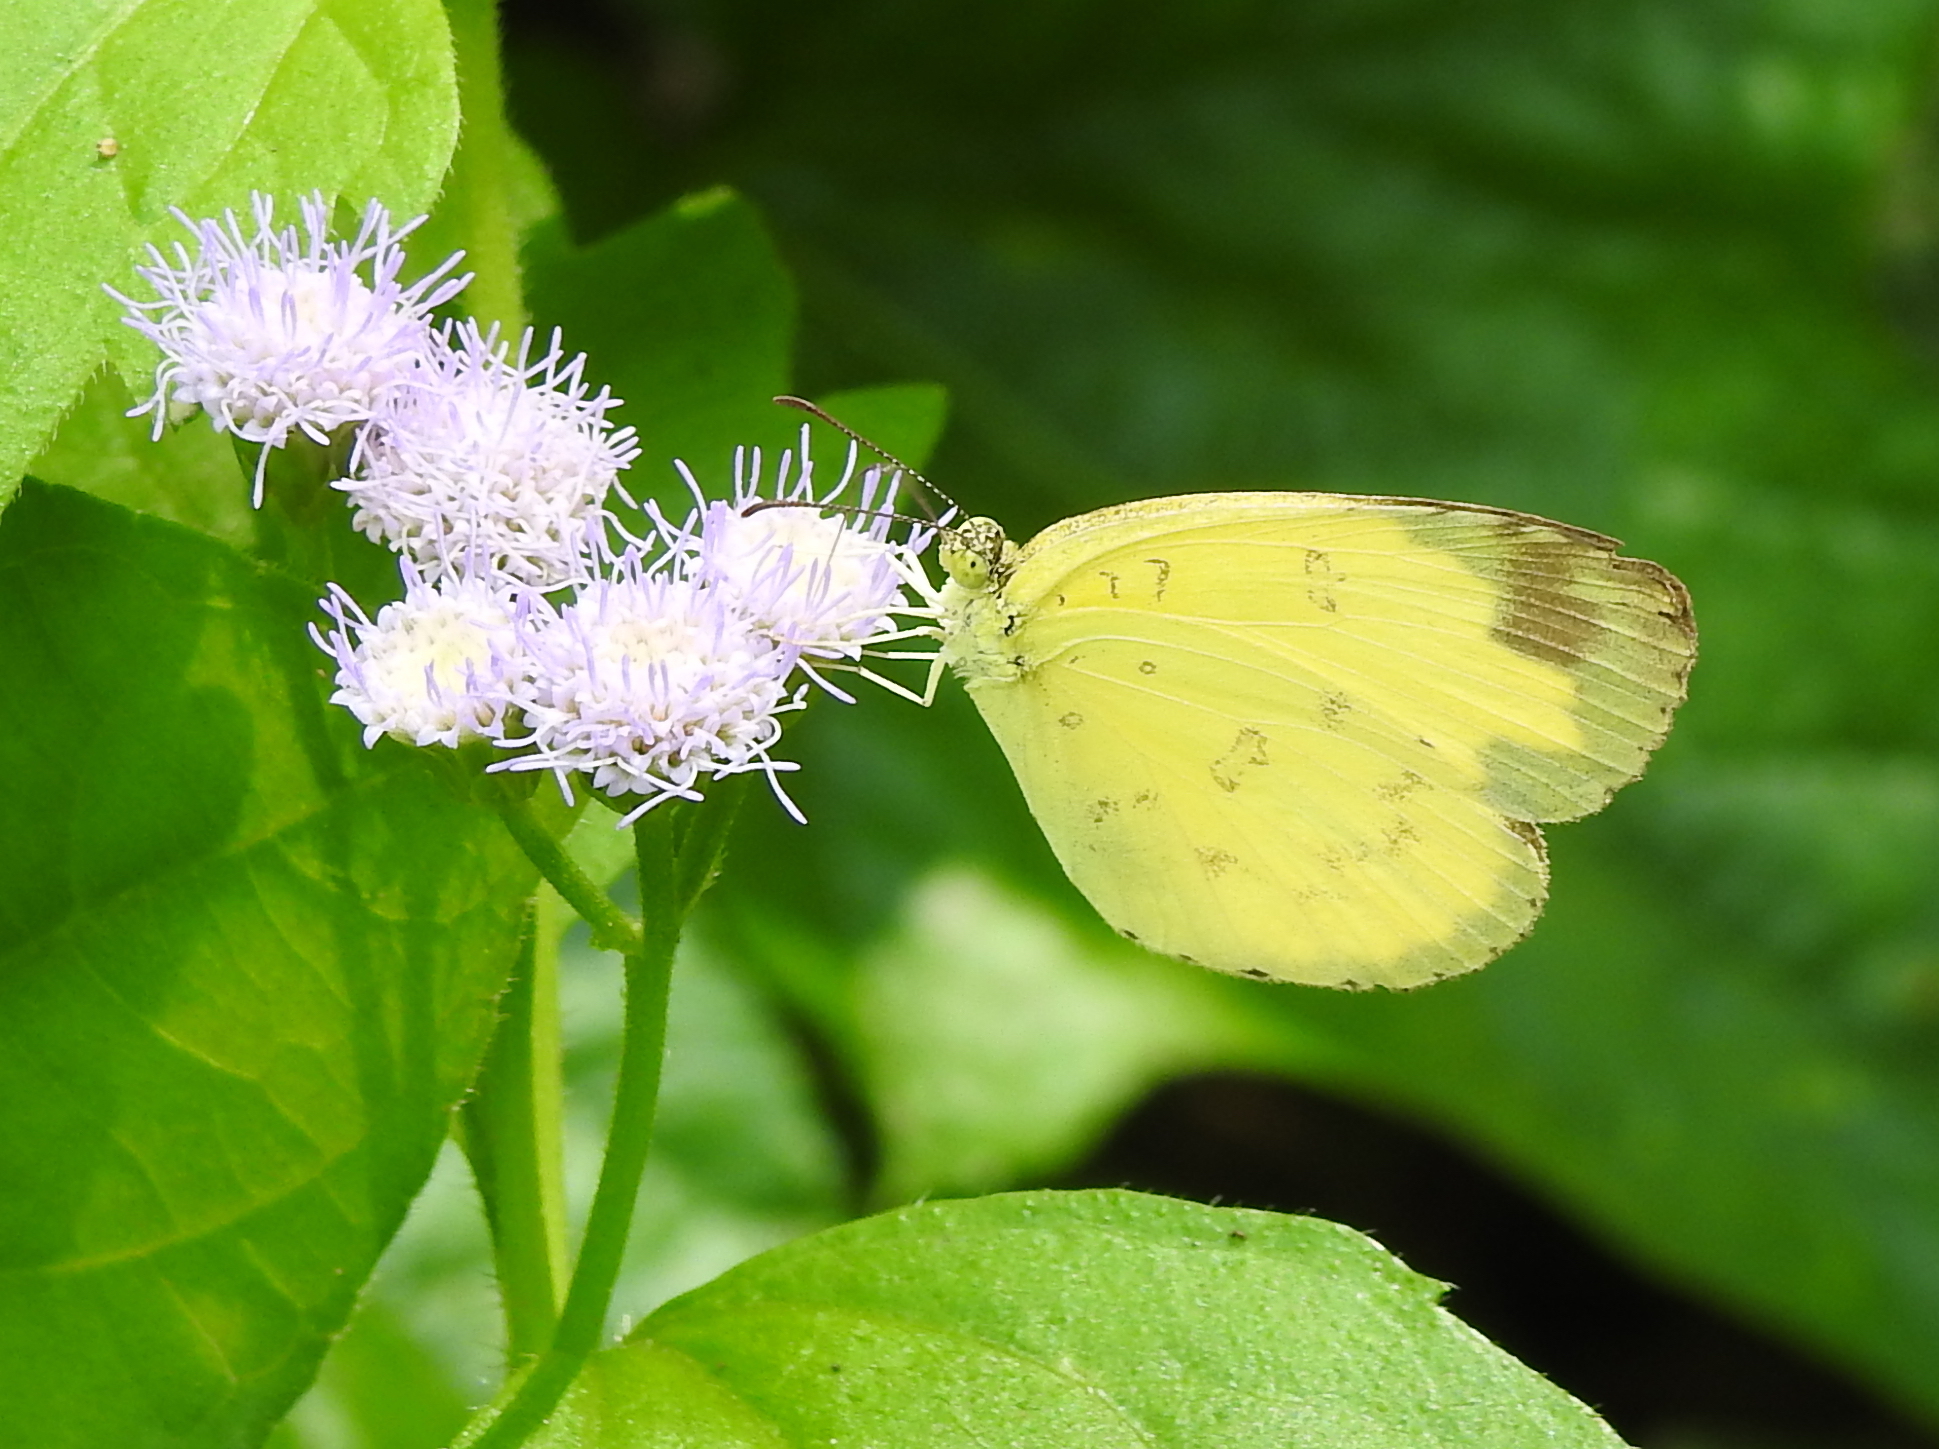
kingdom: Animalia
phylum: Arthropoda
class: Insecta
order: Lepidoptera
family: Pieridae
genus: Eurema
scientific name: Eurema blanda
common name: Three-spot grass yellow
